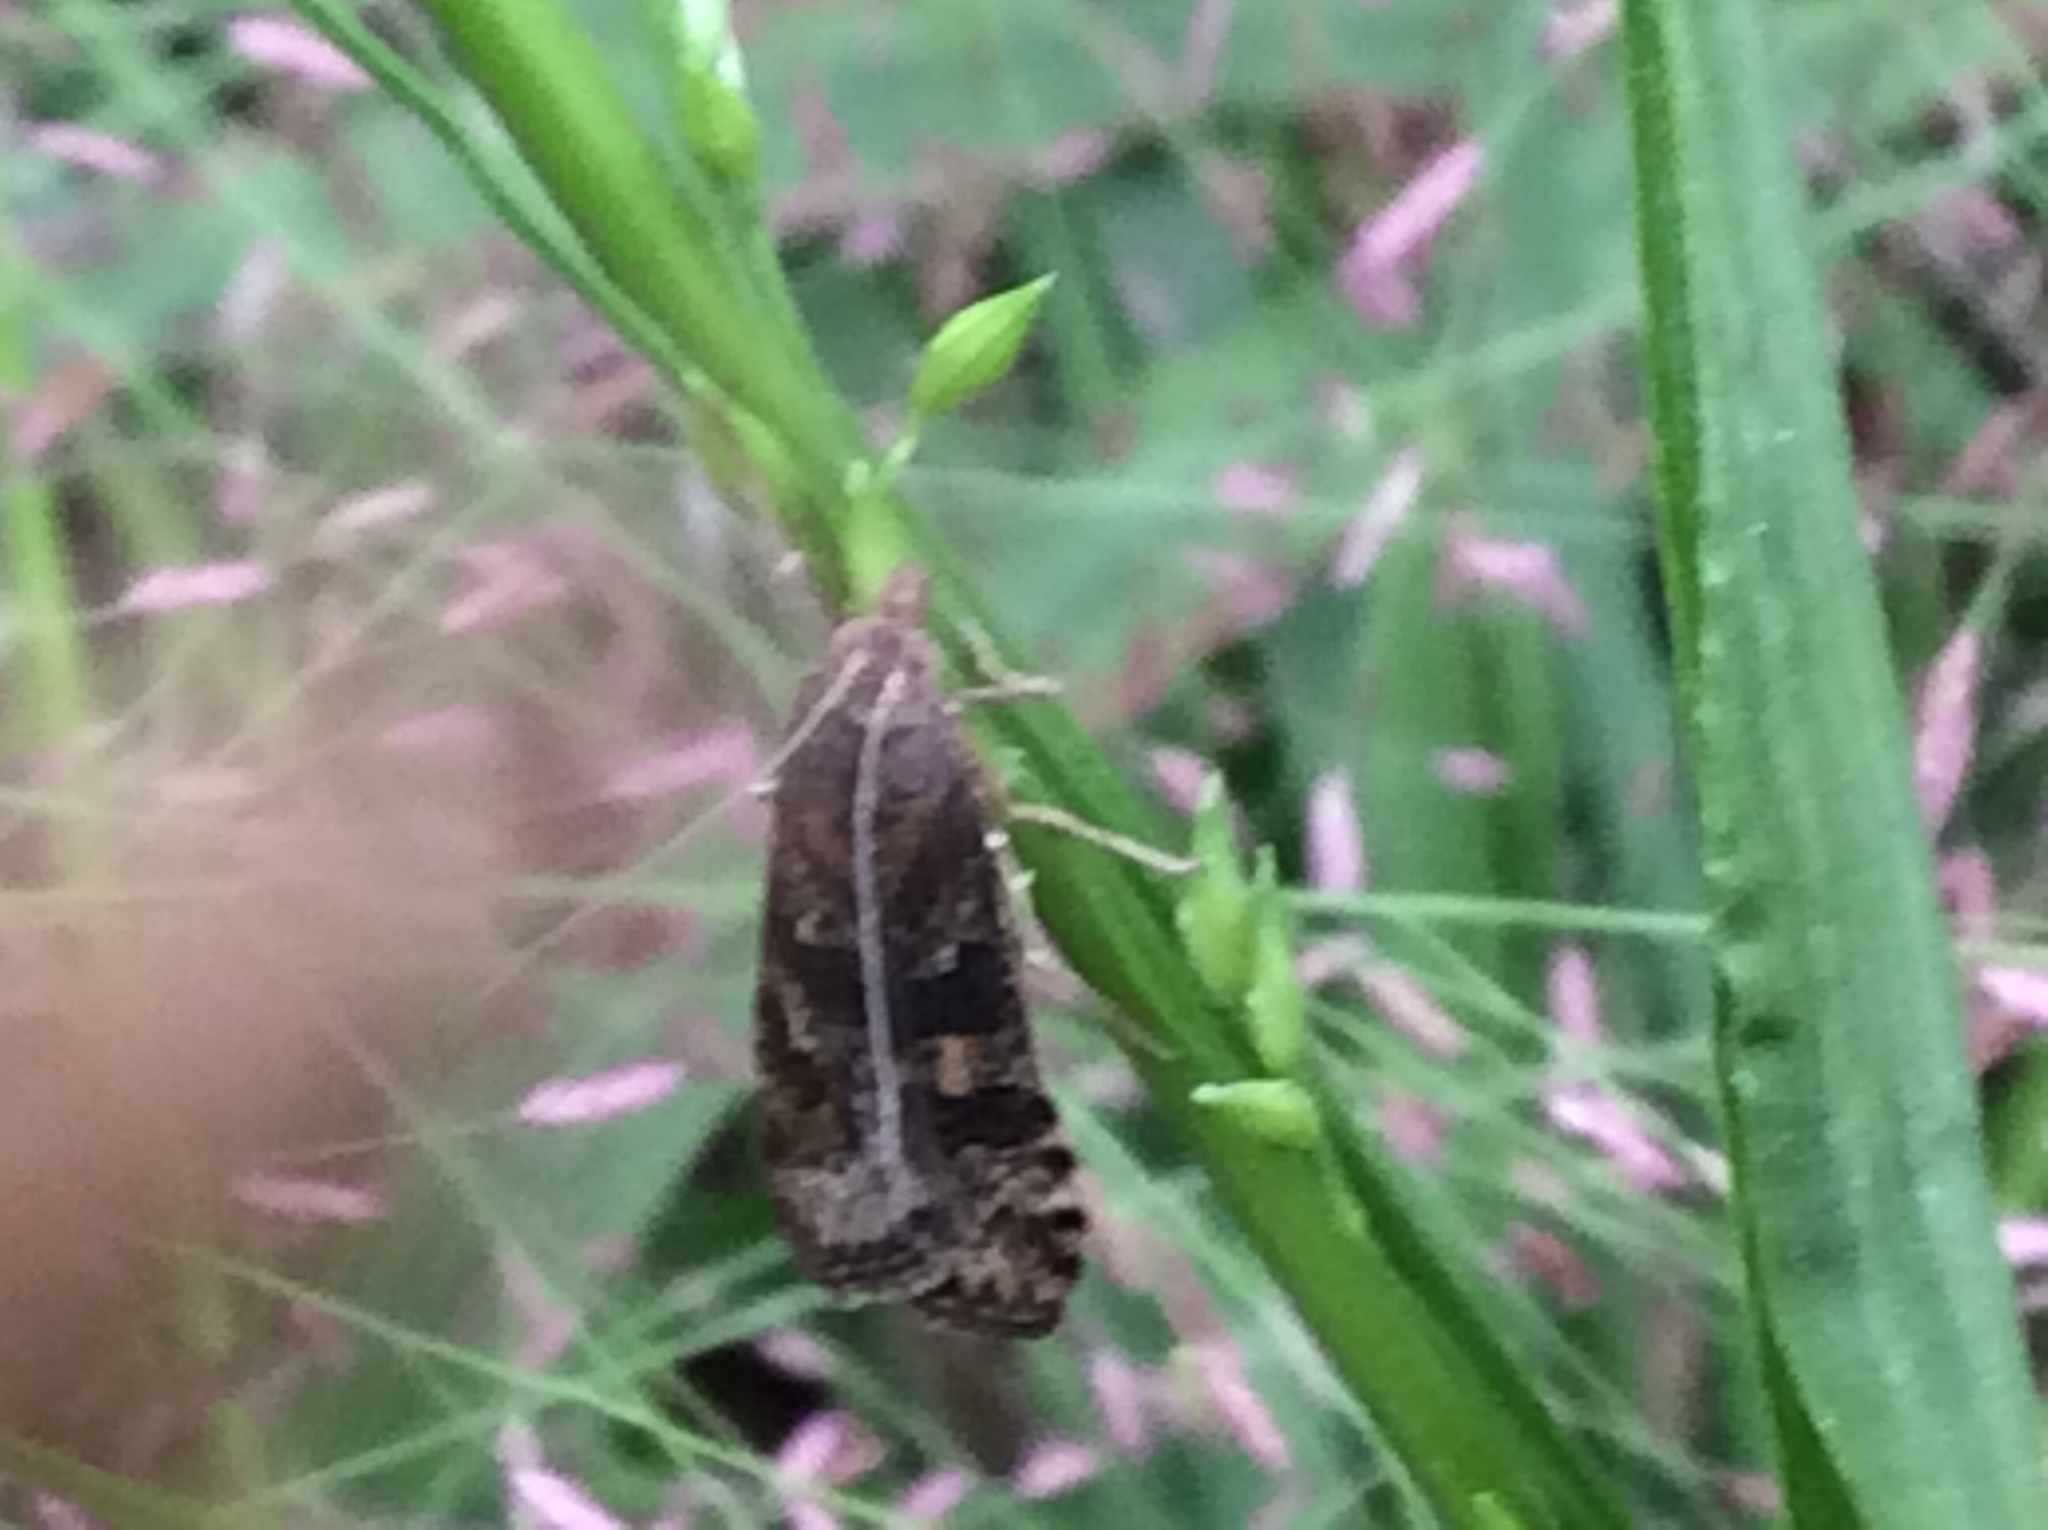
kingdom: Animalia
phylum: Arthropoda
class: Insecta
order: Lepidoptera
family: Crambidae
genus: Nomophila
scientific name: Nomophila nearctica
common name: American rush veneer
